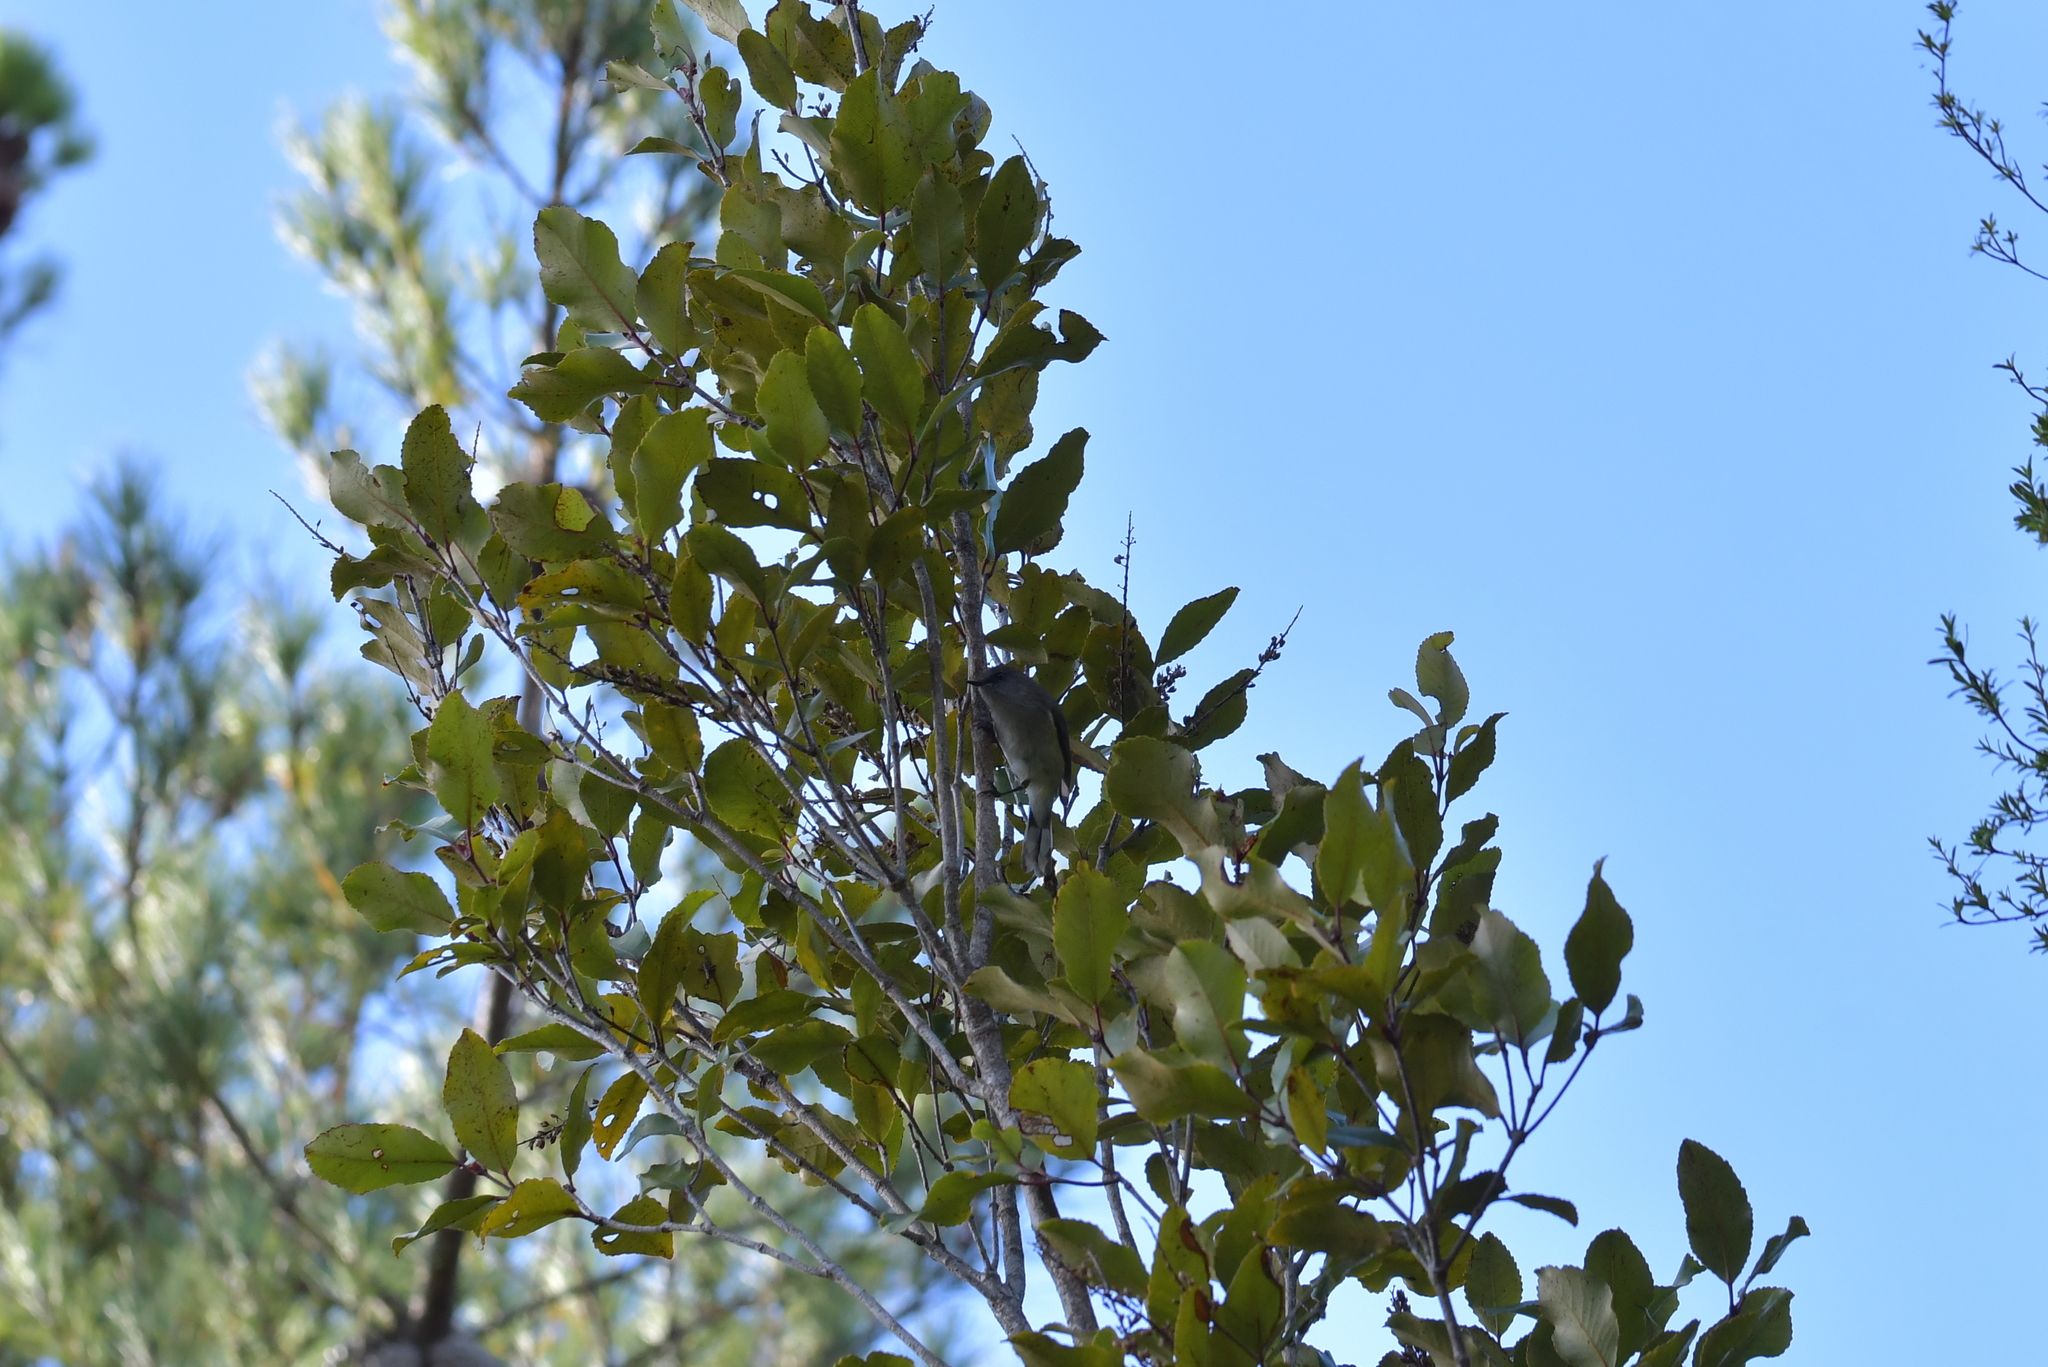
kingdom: Animalia
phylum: Chordata
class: Aves
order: Passeriformes
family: Acanthizidae
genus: Gerygone
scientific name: Gerygone igata
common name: Grey gerygone
